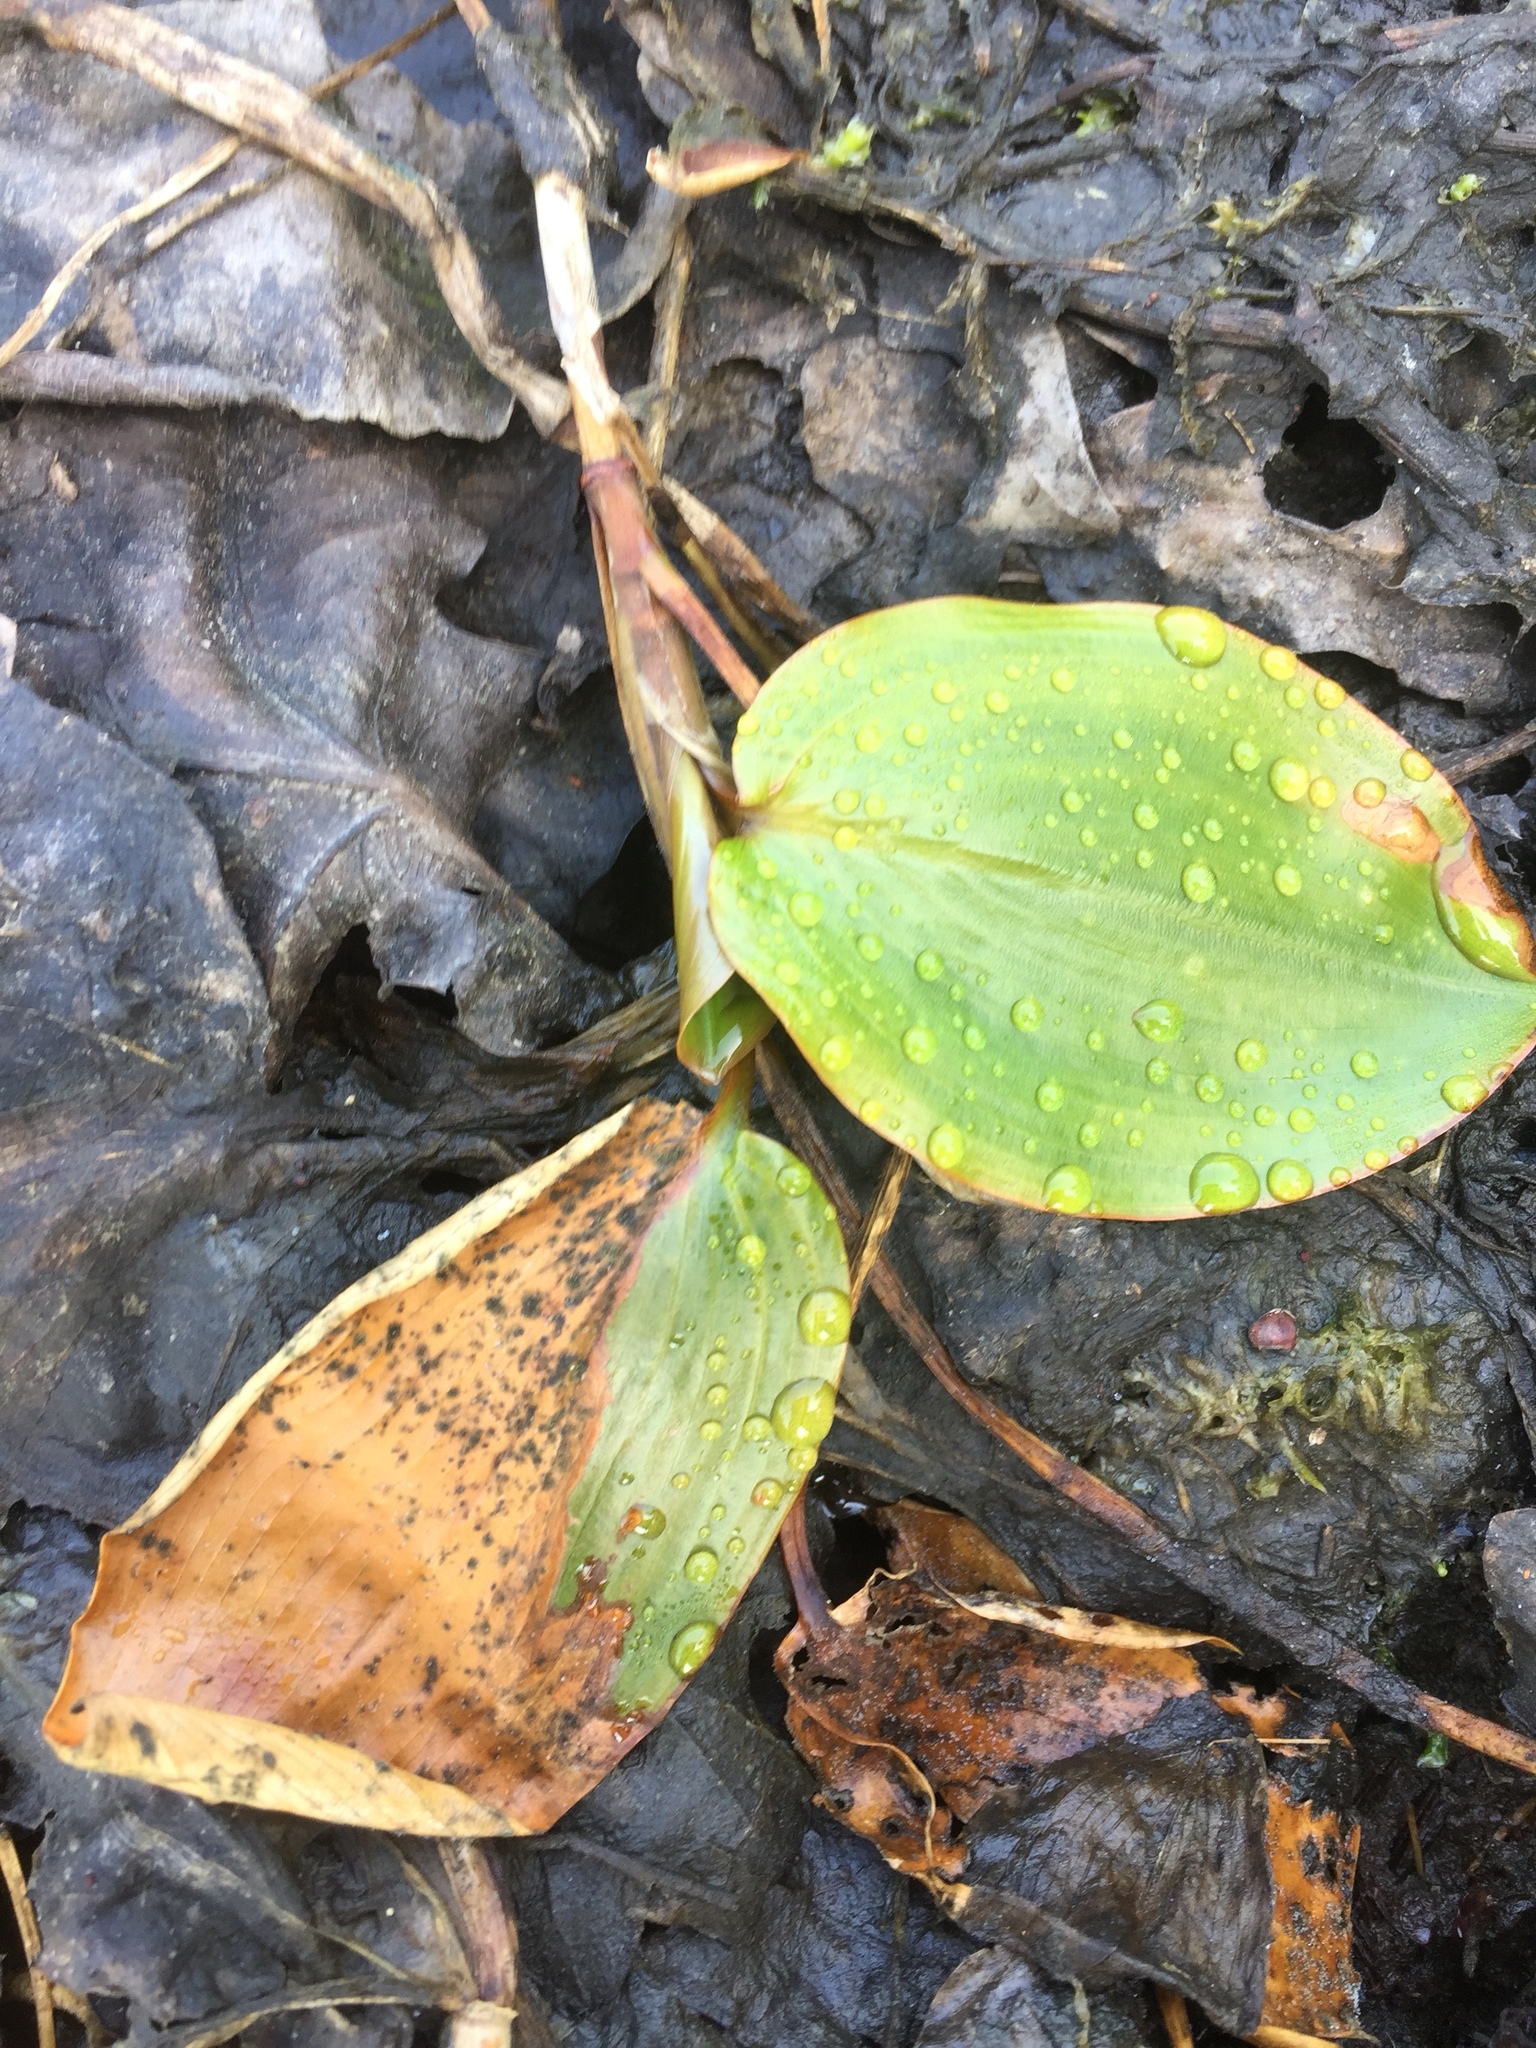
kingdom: Plantae
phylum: Tracheophyta
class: Liliopsida
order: Alismatales
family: Potamogetonaceae
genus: Potamogeton
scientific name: Potamogeton natans
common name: Broad-leaved pondweed
